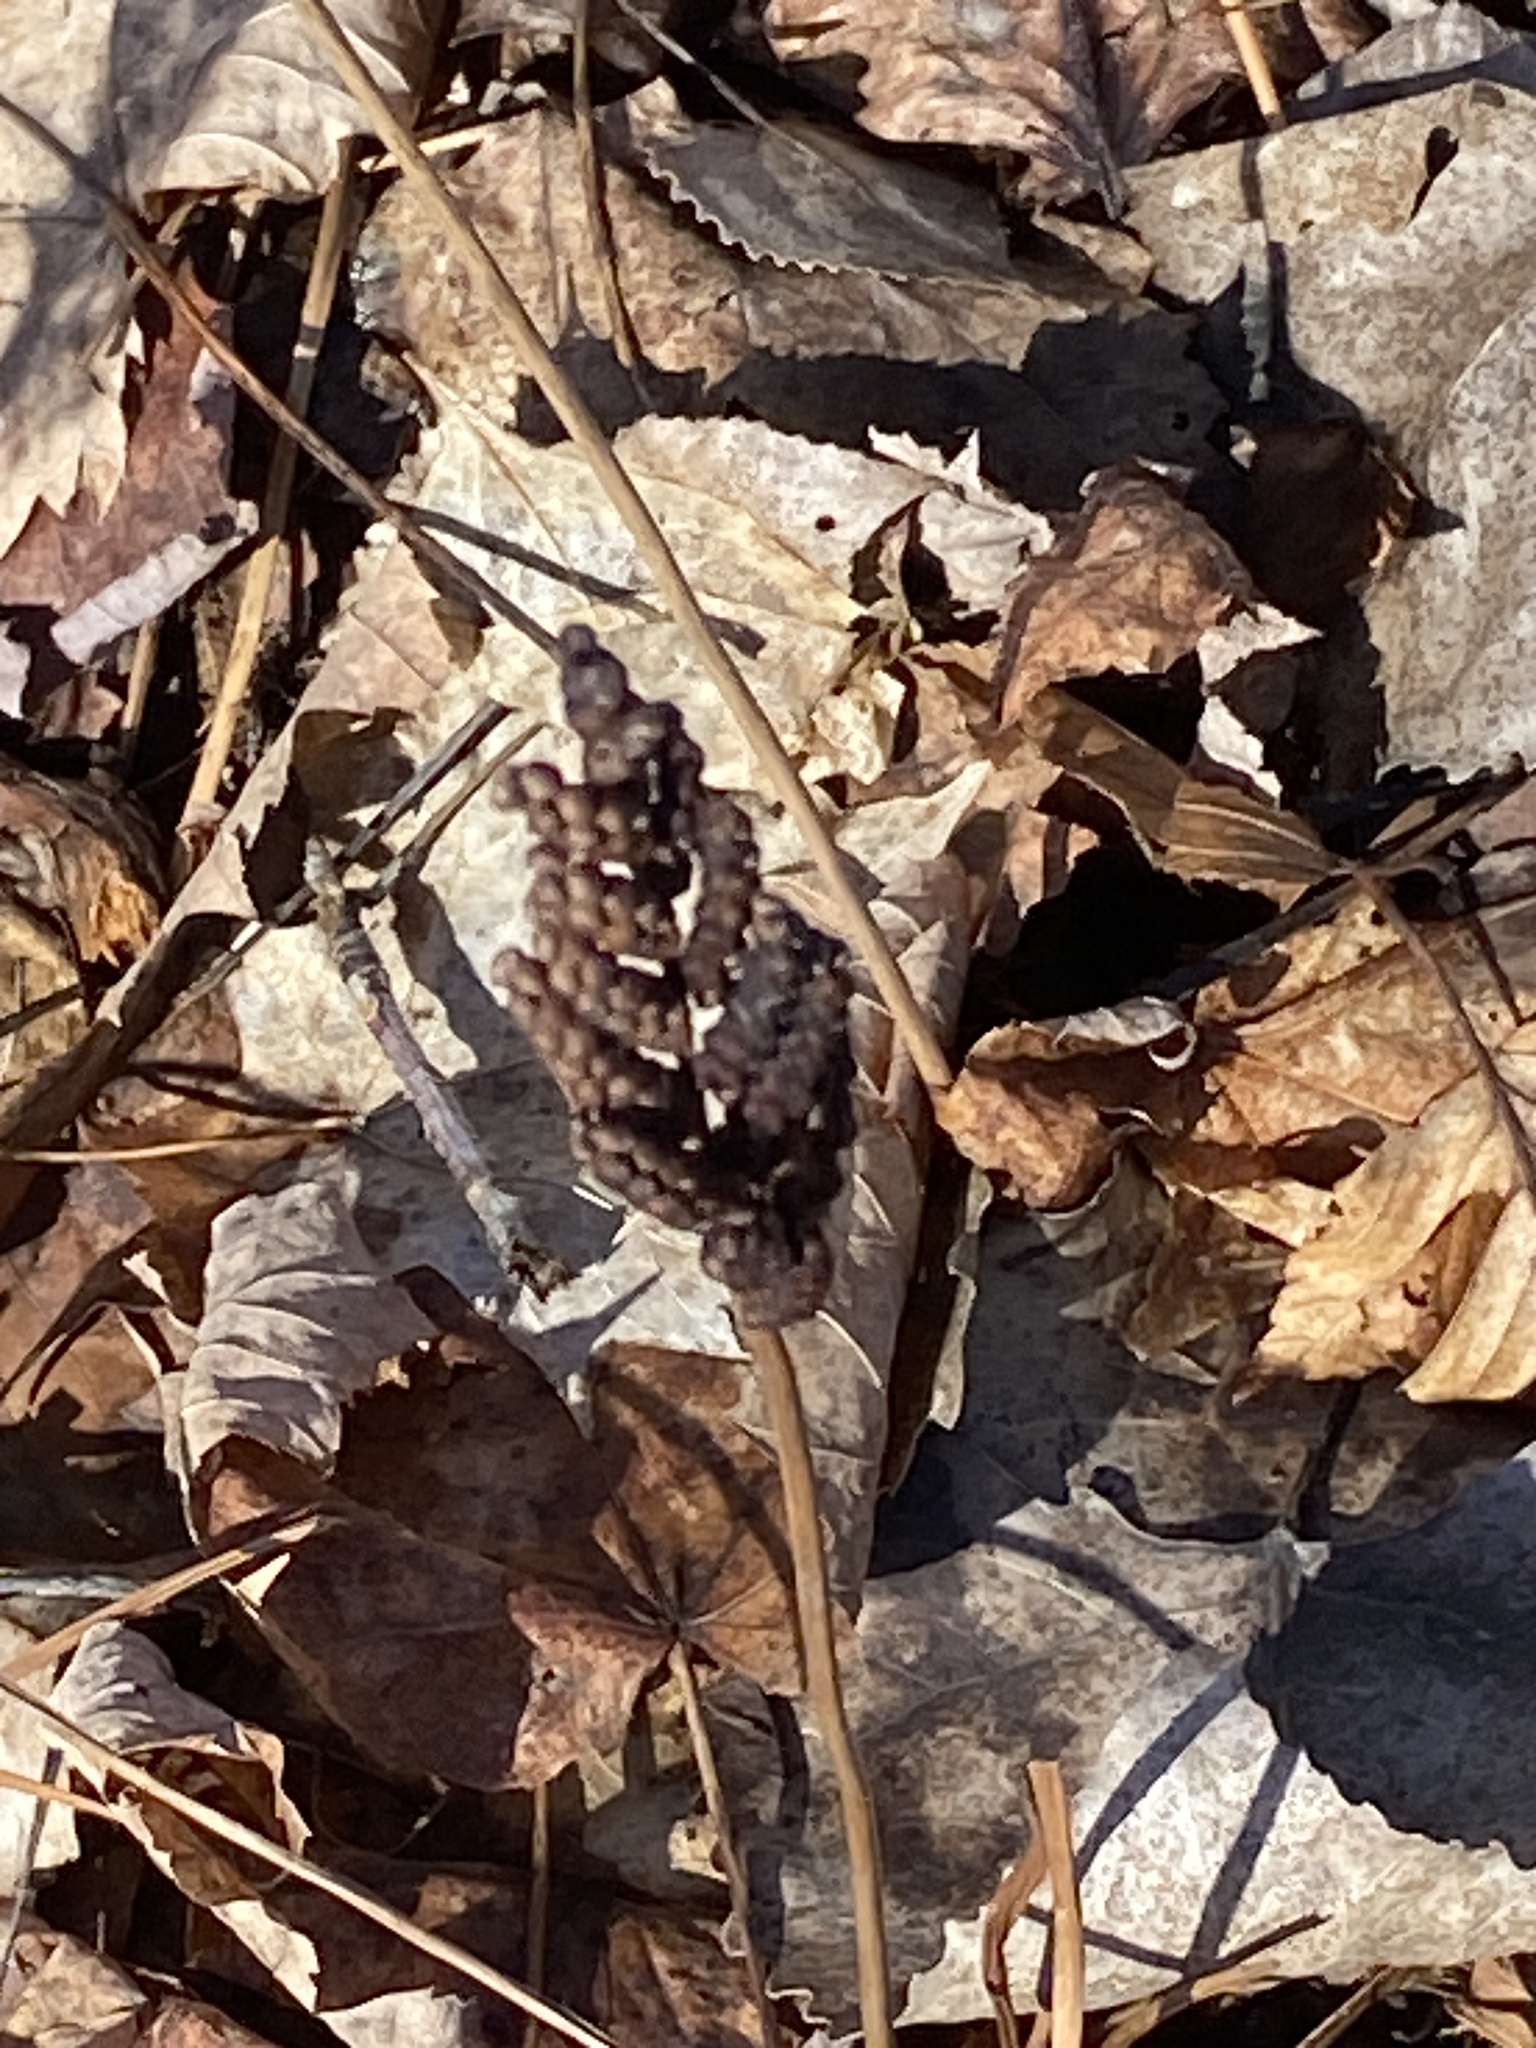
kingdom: Plantae
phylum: Tracheophyta
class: Polypodiopsida
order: Polypodiales
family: Onocleaceae
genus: Onoclea
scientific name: Onoclea sensibilis
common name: Sensitive fern
